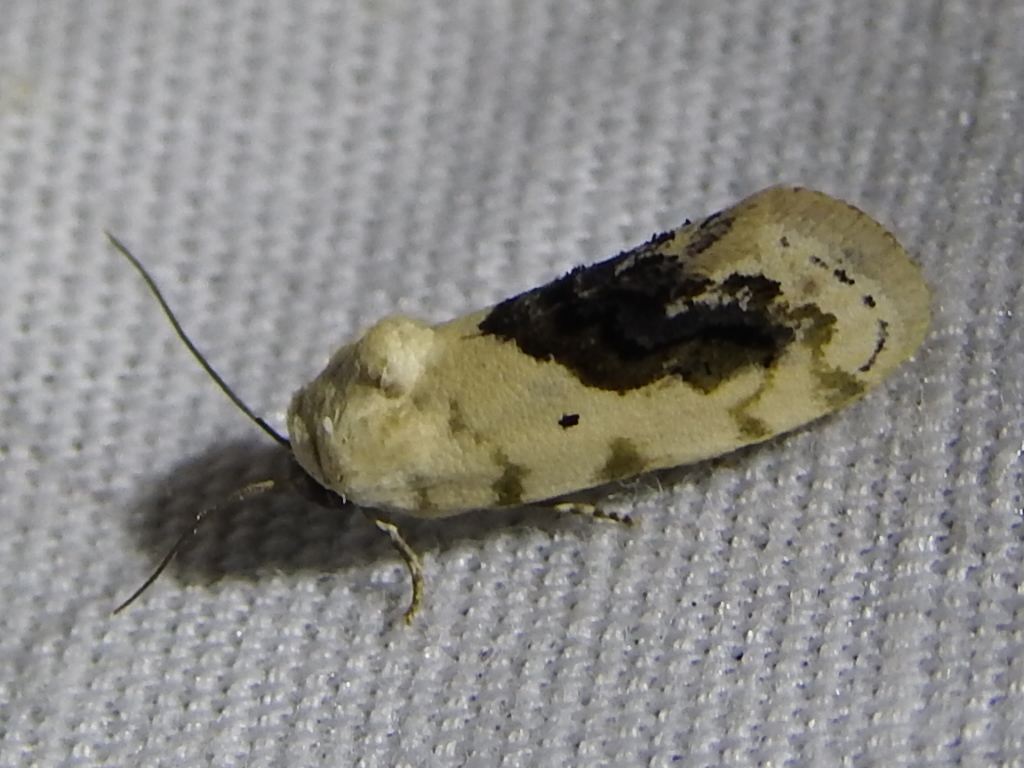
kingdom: Animalia
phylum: Arthropoda
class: Insecta
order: Lepidoptera
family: Noctuidae
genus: Acontia
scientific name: Acontia erastrioides
